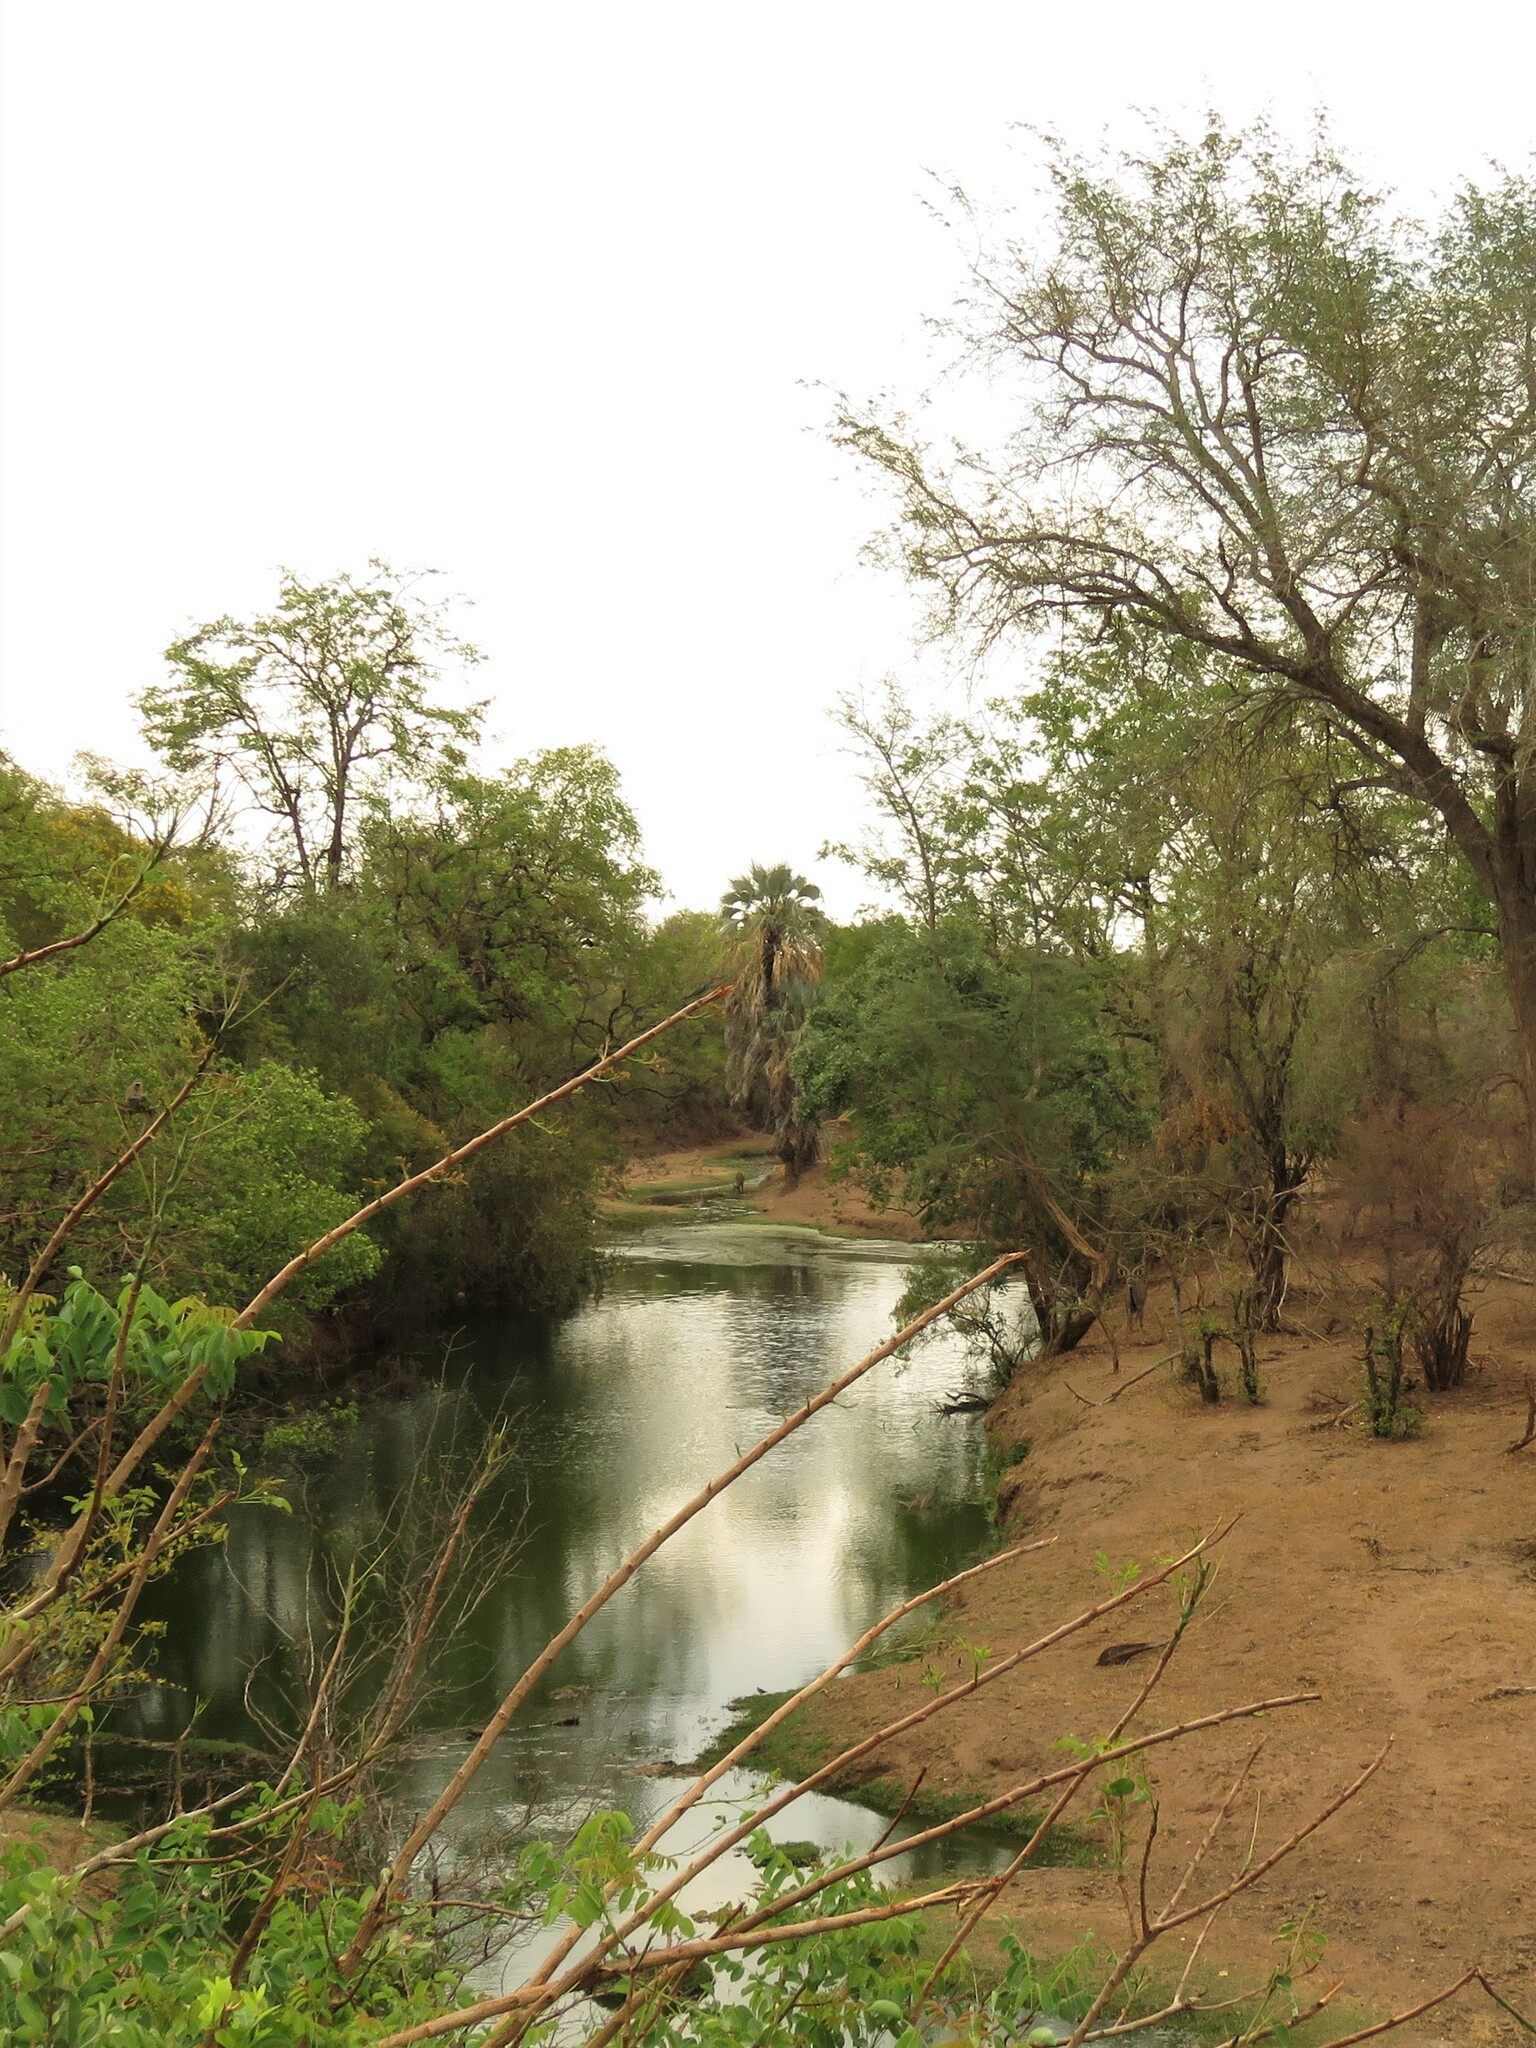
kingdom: Plantae
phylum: Tracheophyta
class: Liliopsida
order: Arecales
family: Arecaceae
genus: Hyphaene
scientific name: Hyphaene petersiana
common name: African ivory nut palm
